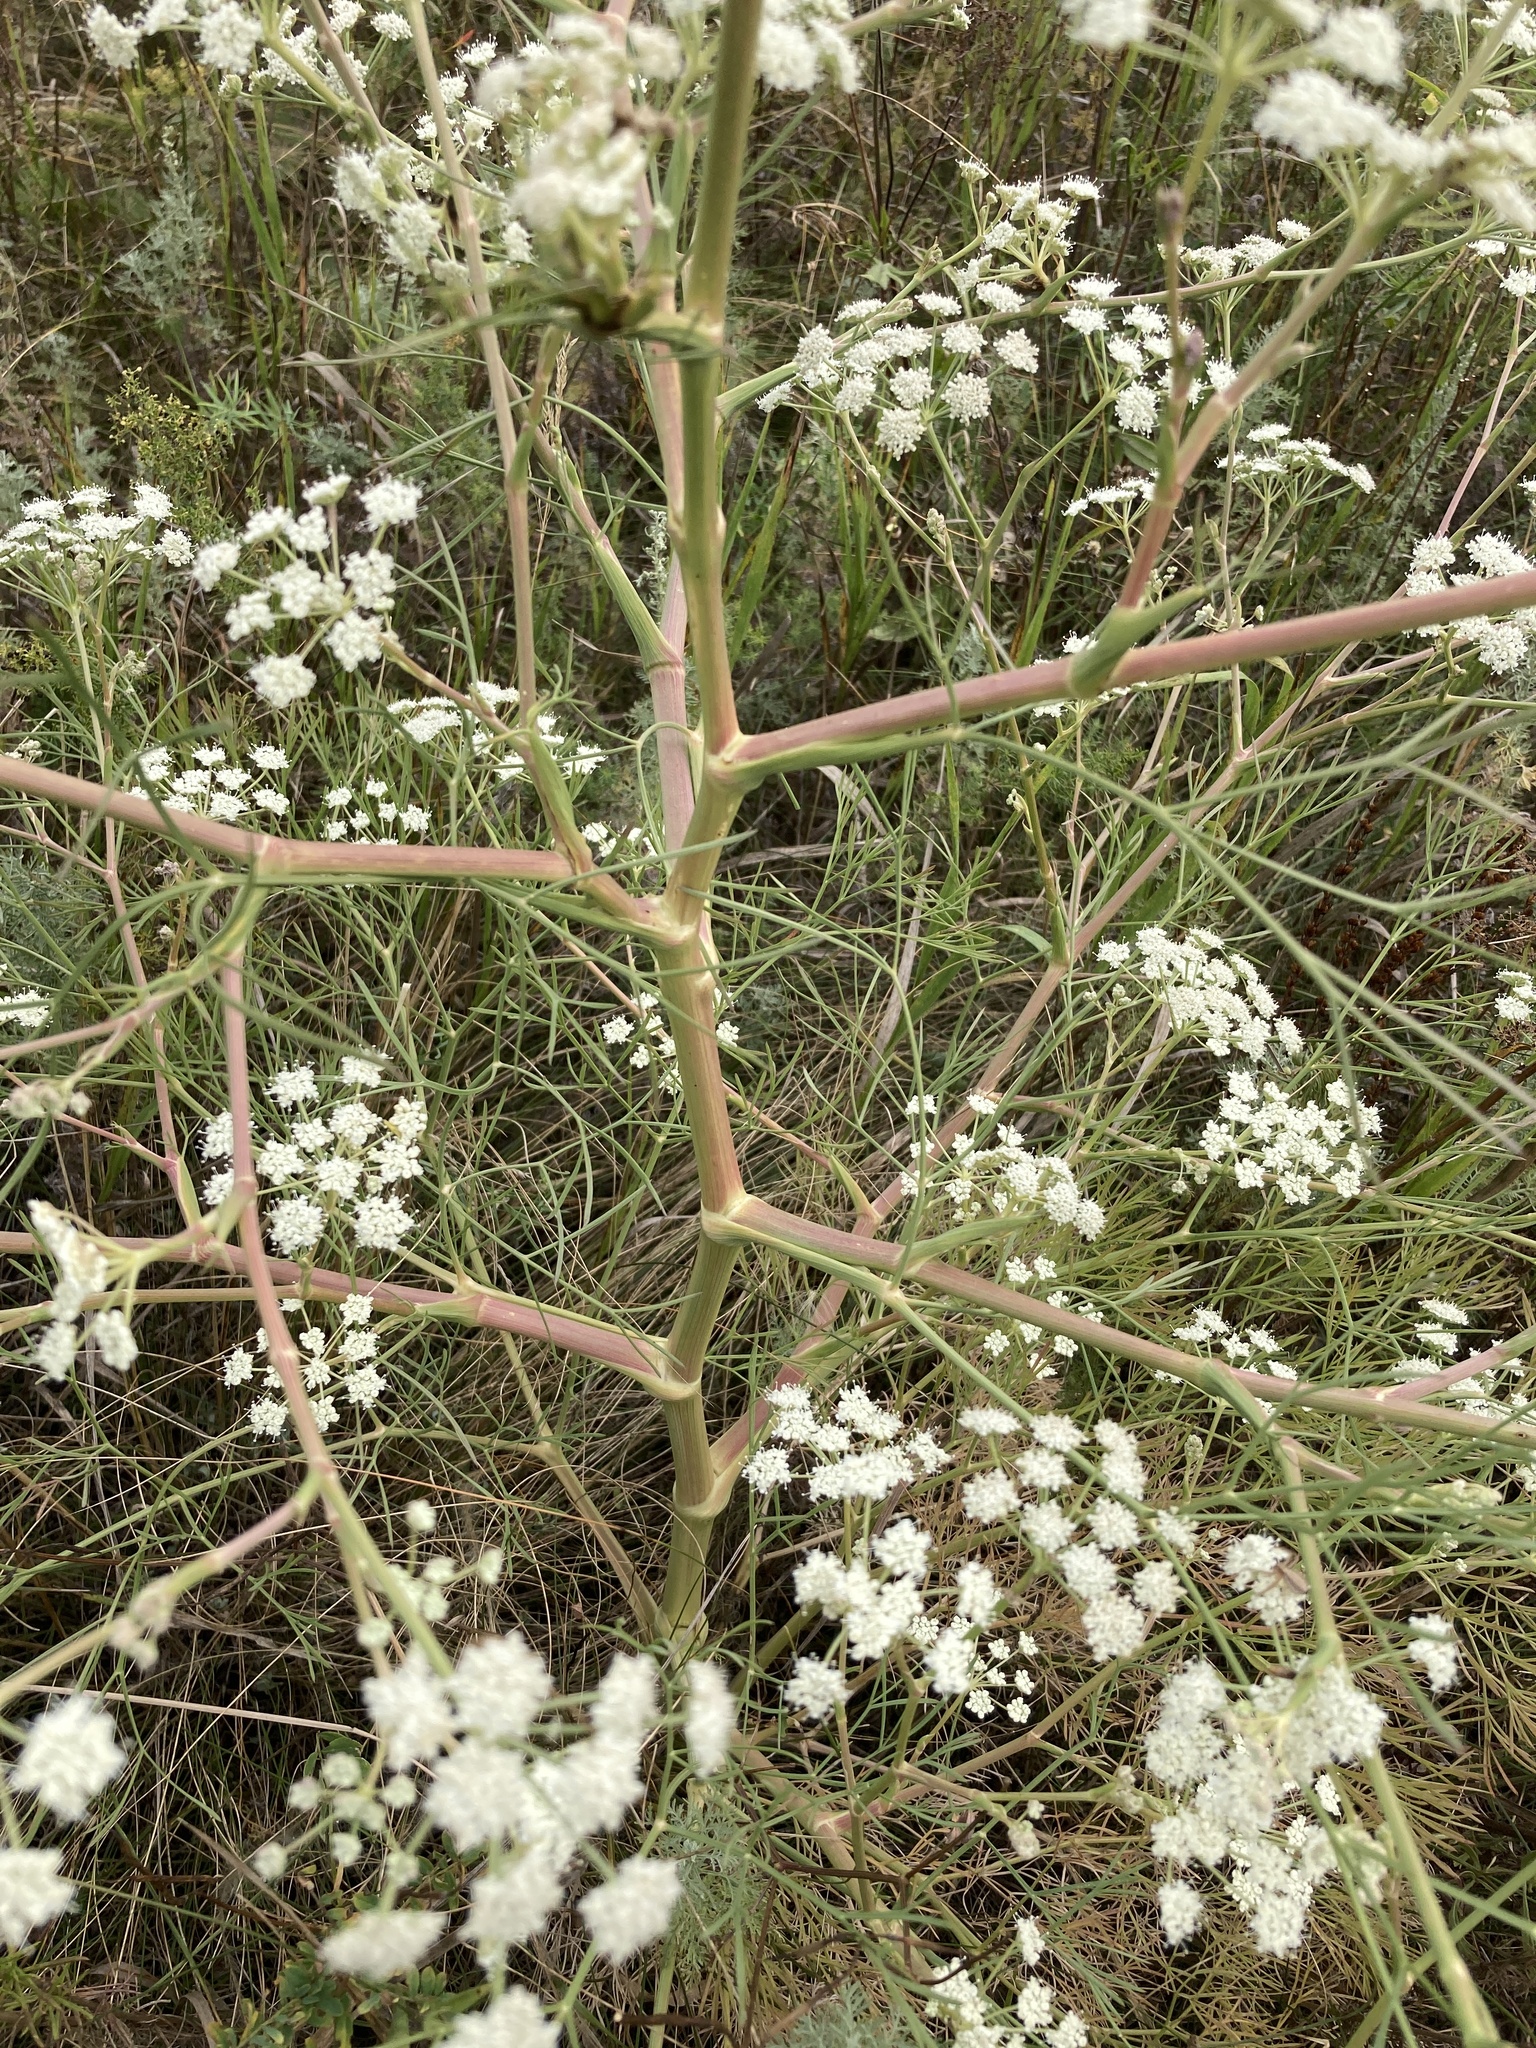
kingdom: Plantae
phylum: Tracheophyta
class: Magnoliopsida
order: Apiales
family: Apiaceae
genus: Seseli
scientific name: Seseli arenarium
